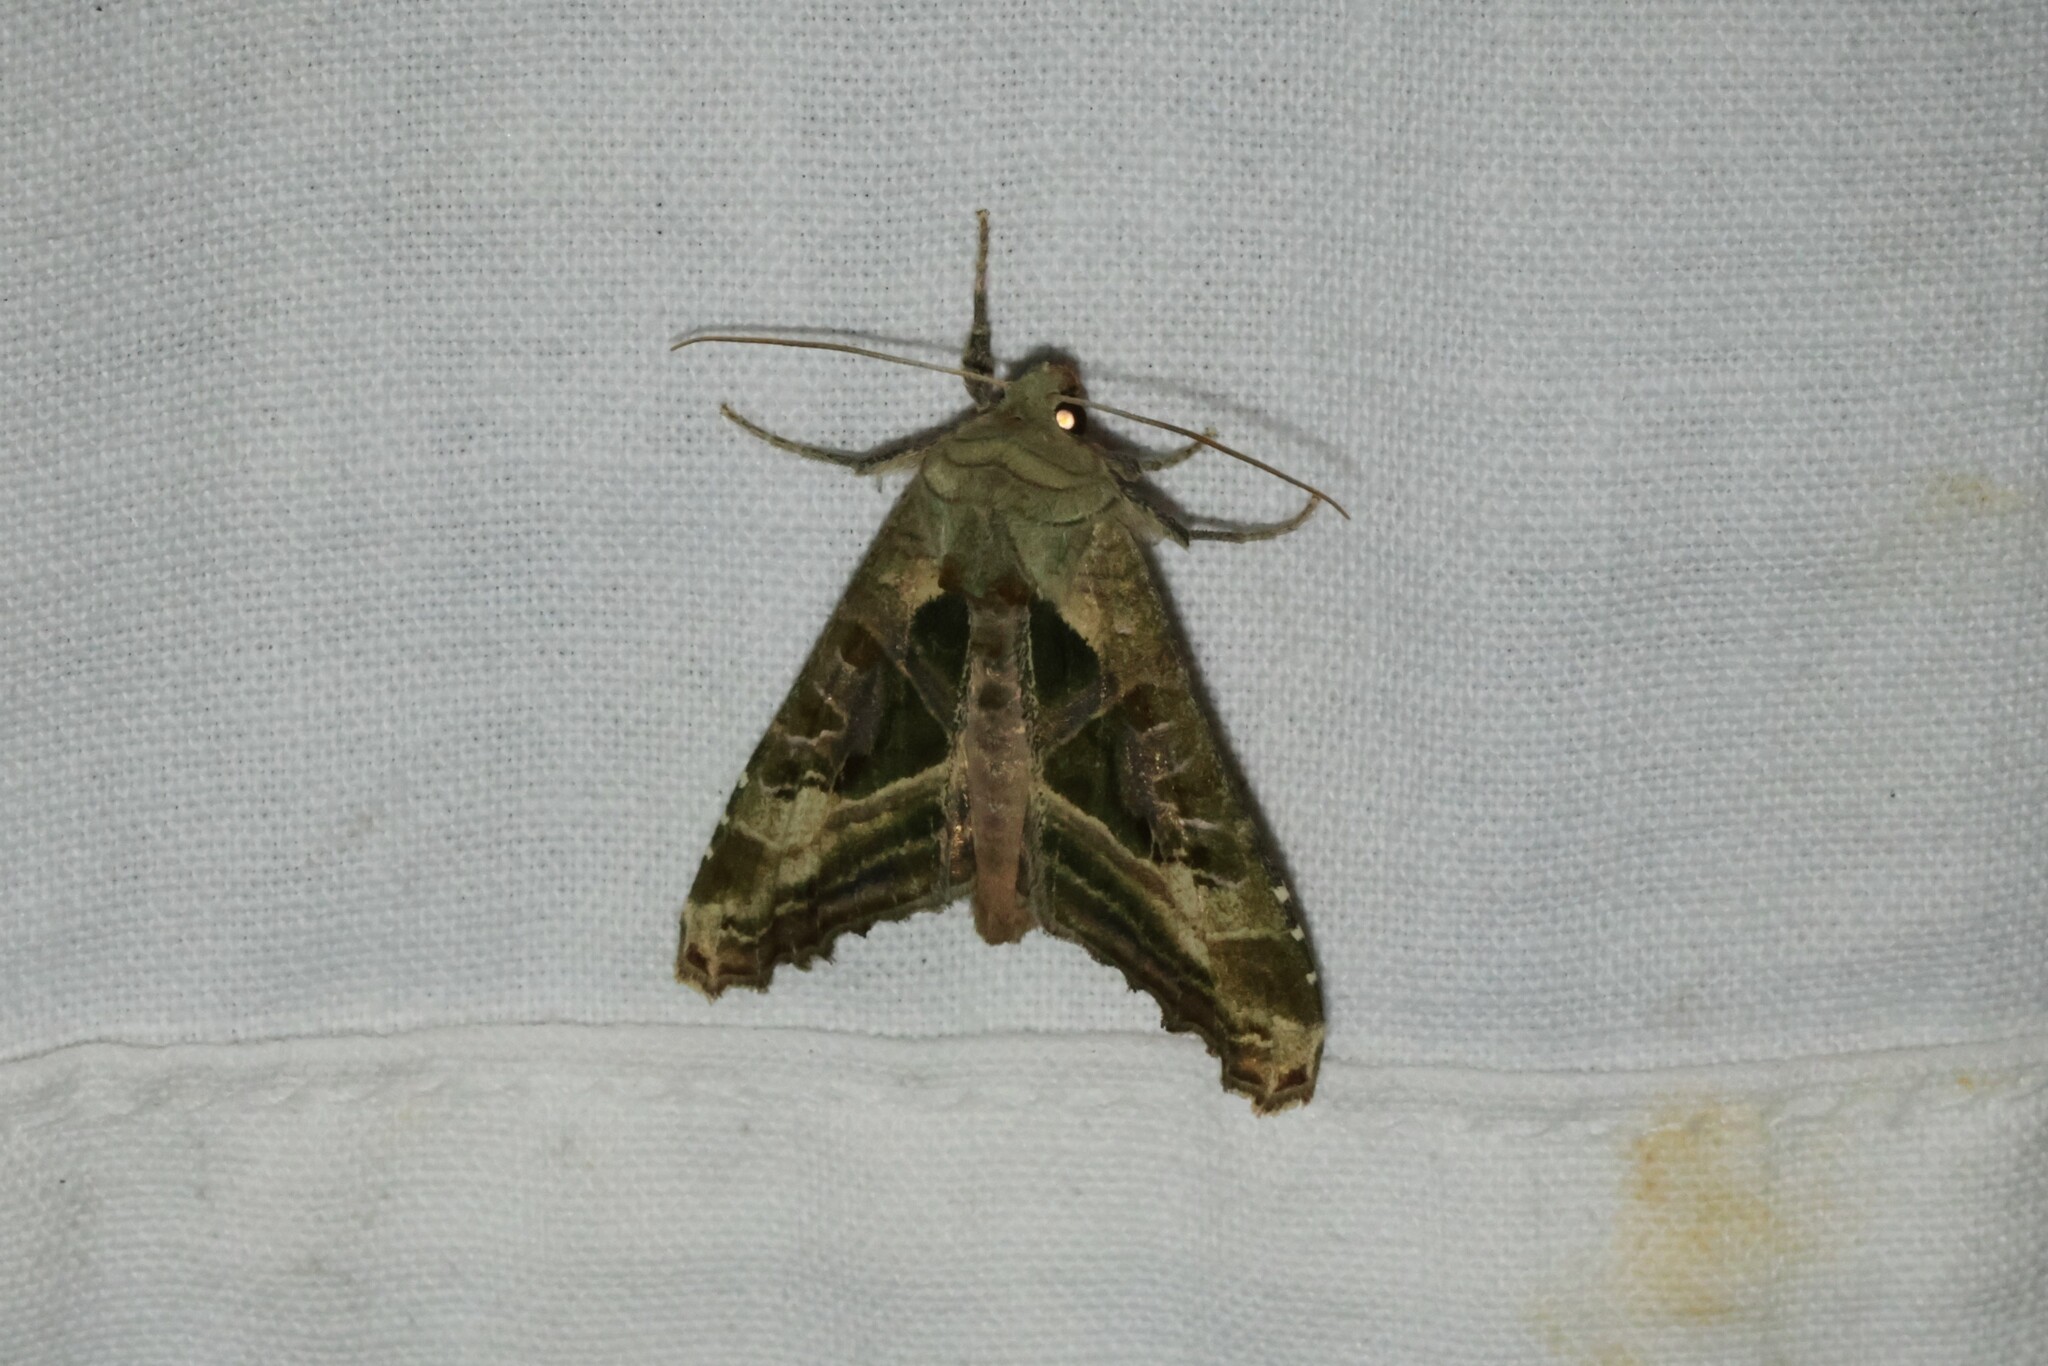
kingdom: Animalia
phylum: Arthropoda
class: Insecta
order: Lepidoptera
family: Noctuidae
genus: Phlogophora
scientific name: Phlogophora iris
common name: Olive angle shades
